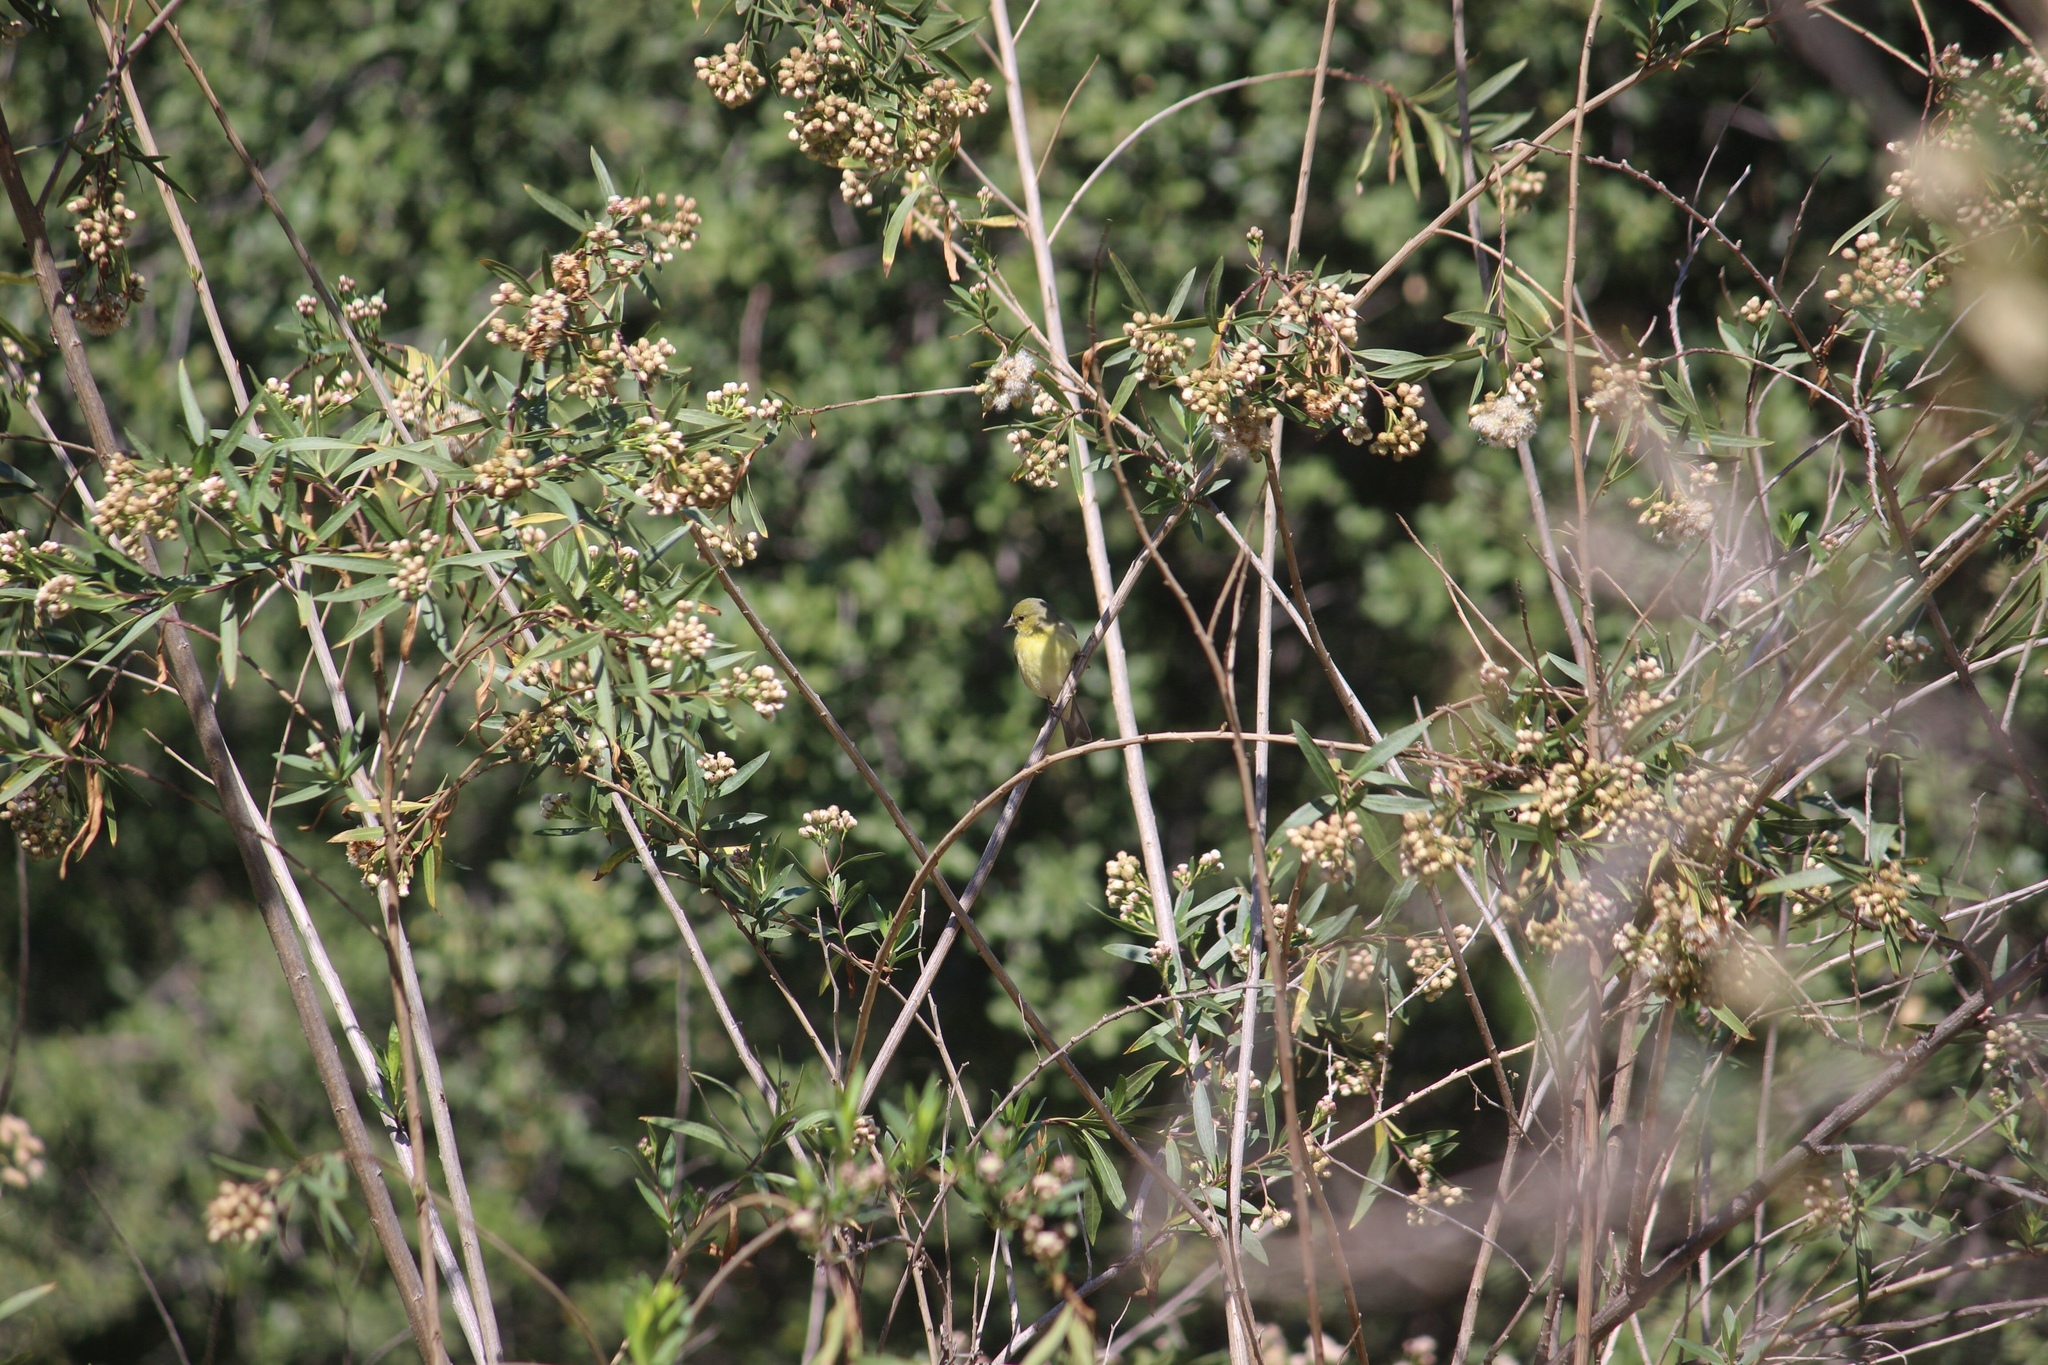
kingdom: Animalia
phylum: Chordata
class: Aves
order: Passeriformes
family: Fringillidae
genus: Spinus
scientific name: Spinus psaltria
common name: Lesser goldfinch
